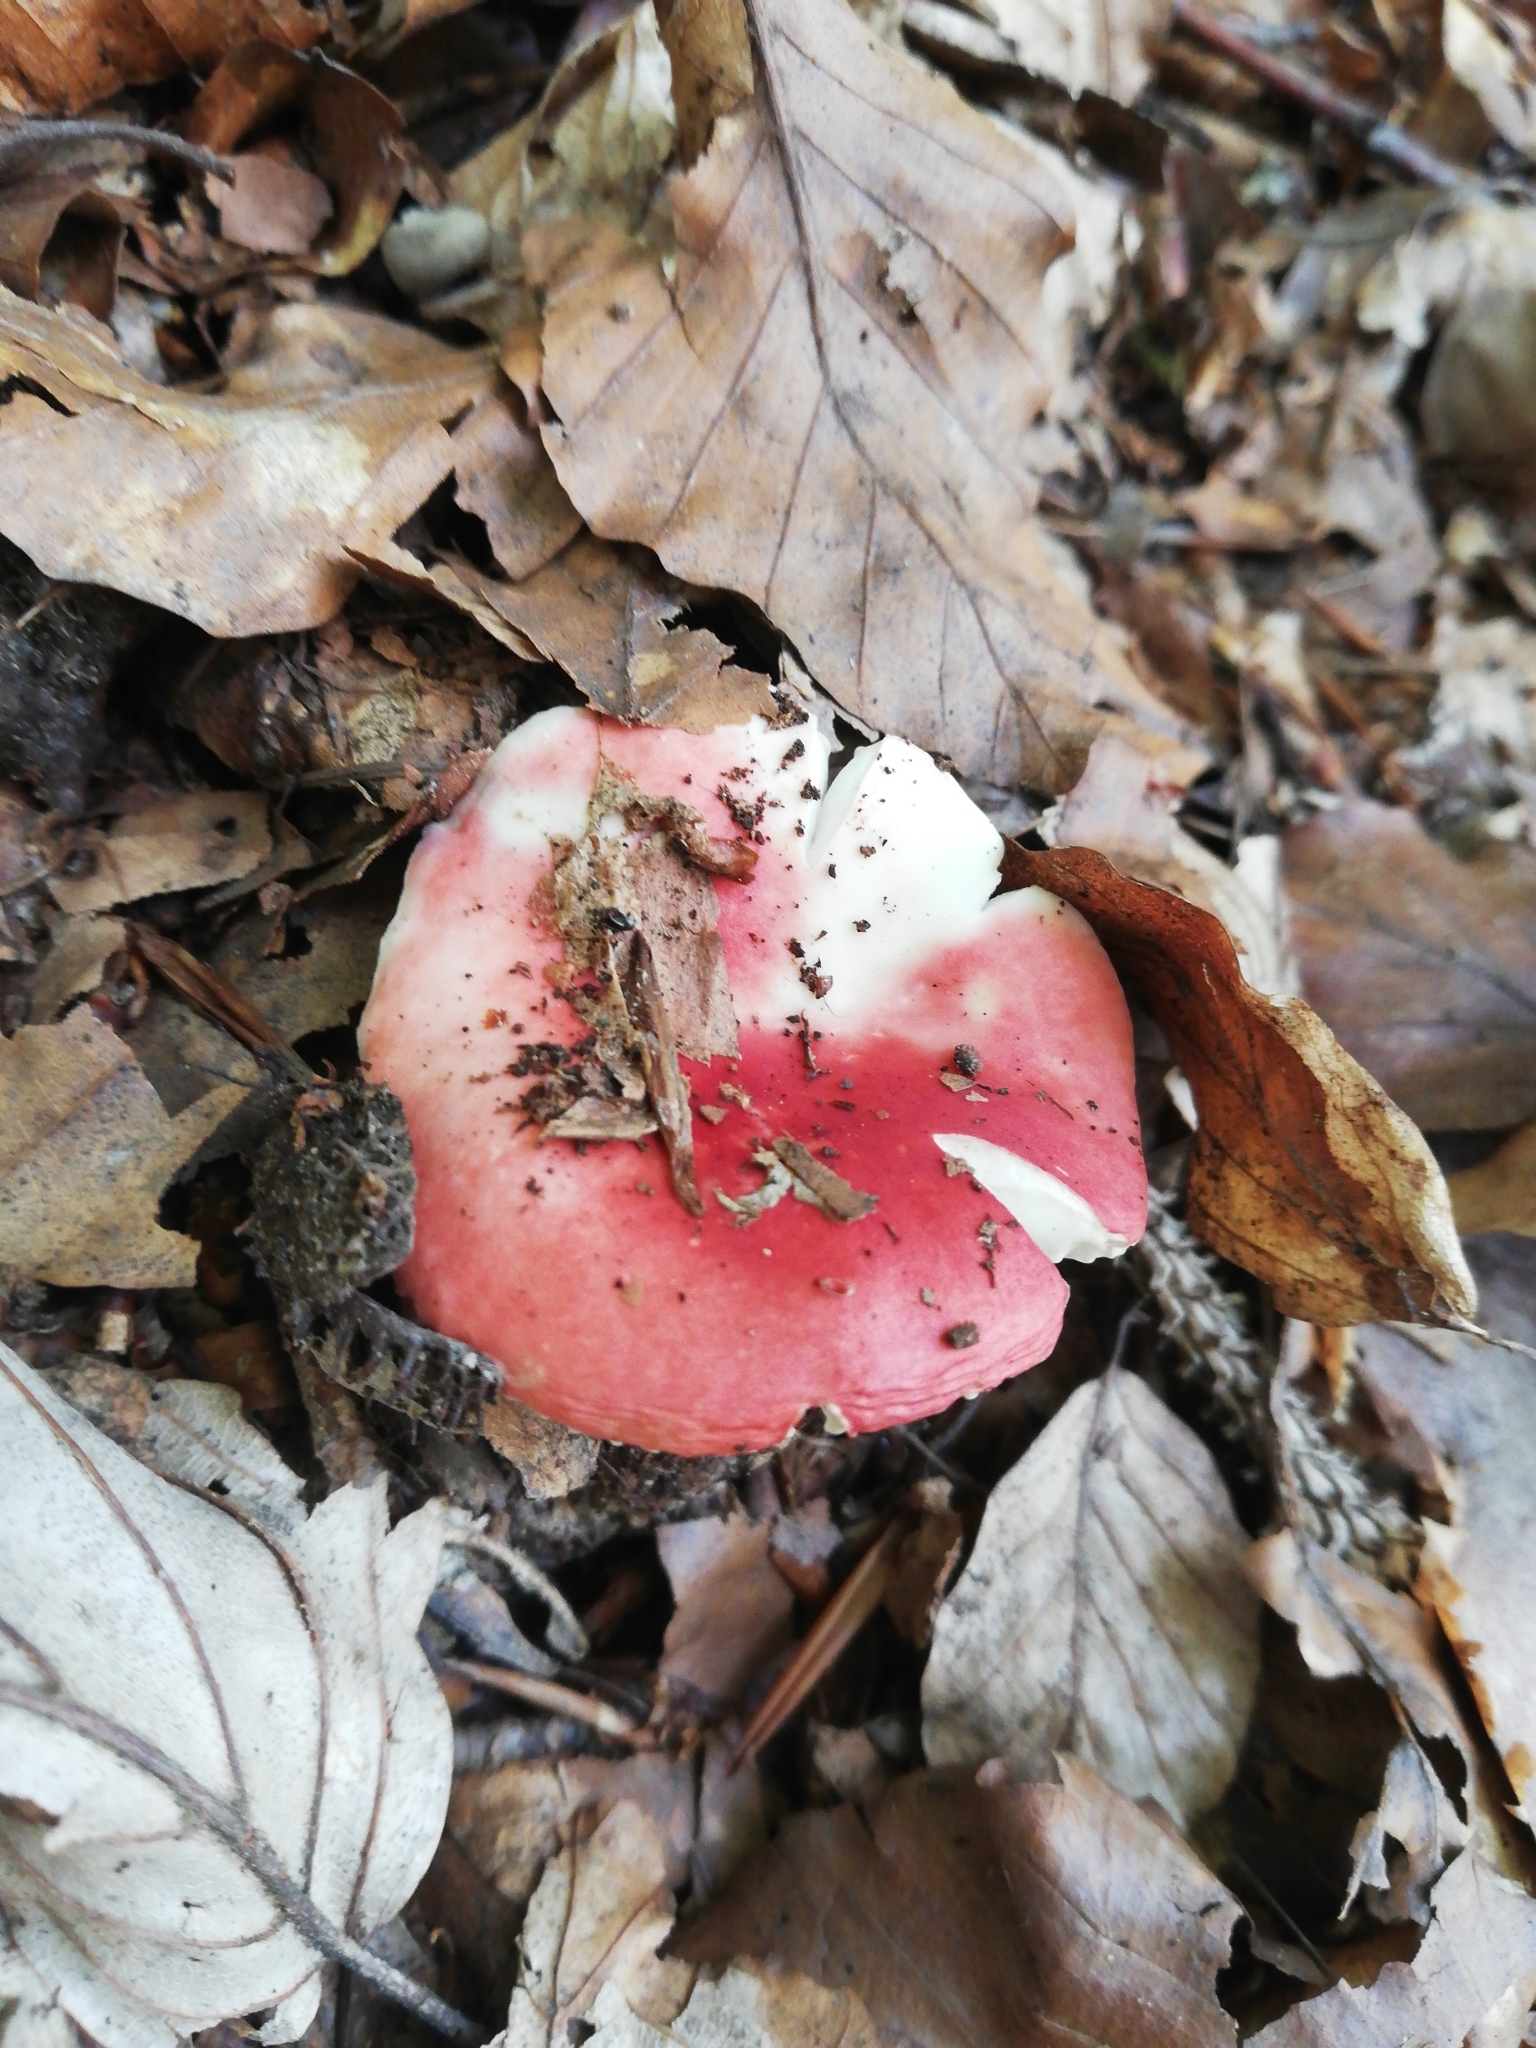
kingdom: Fungi
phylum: Basidiomycota
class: Agaricomycetes
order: Russulales
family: Russulaceae
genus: Russula
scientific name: Russula nobilis
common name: Beechwood sickener
